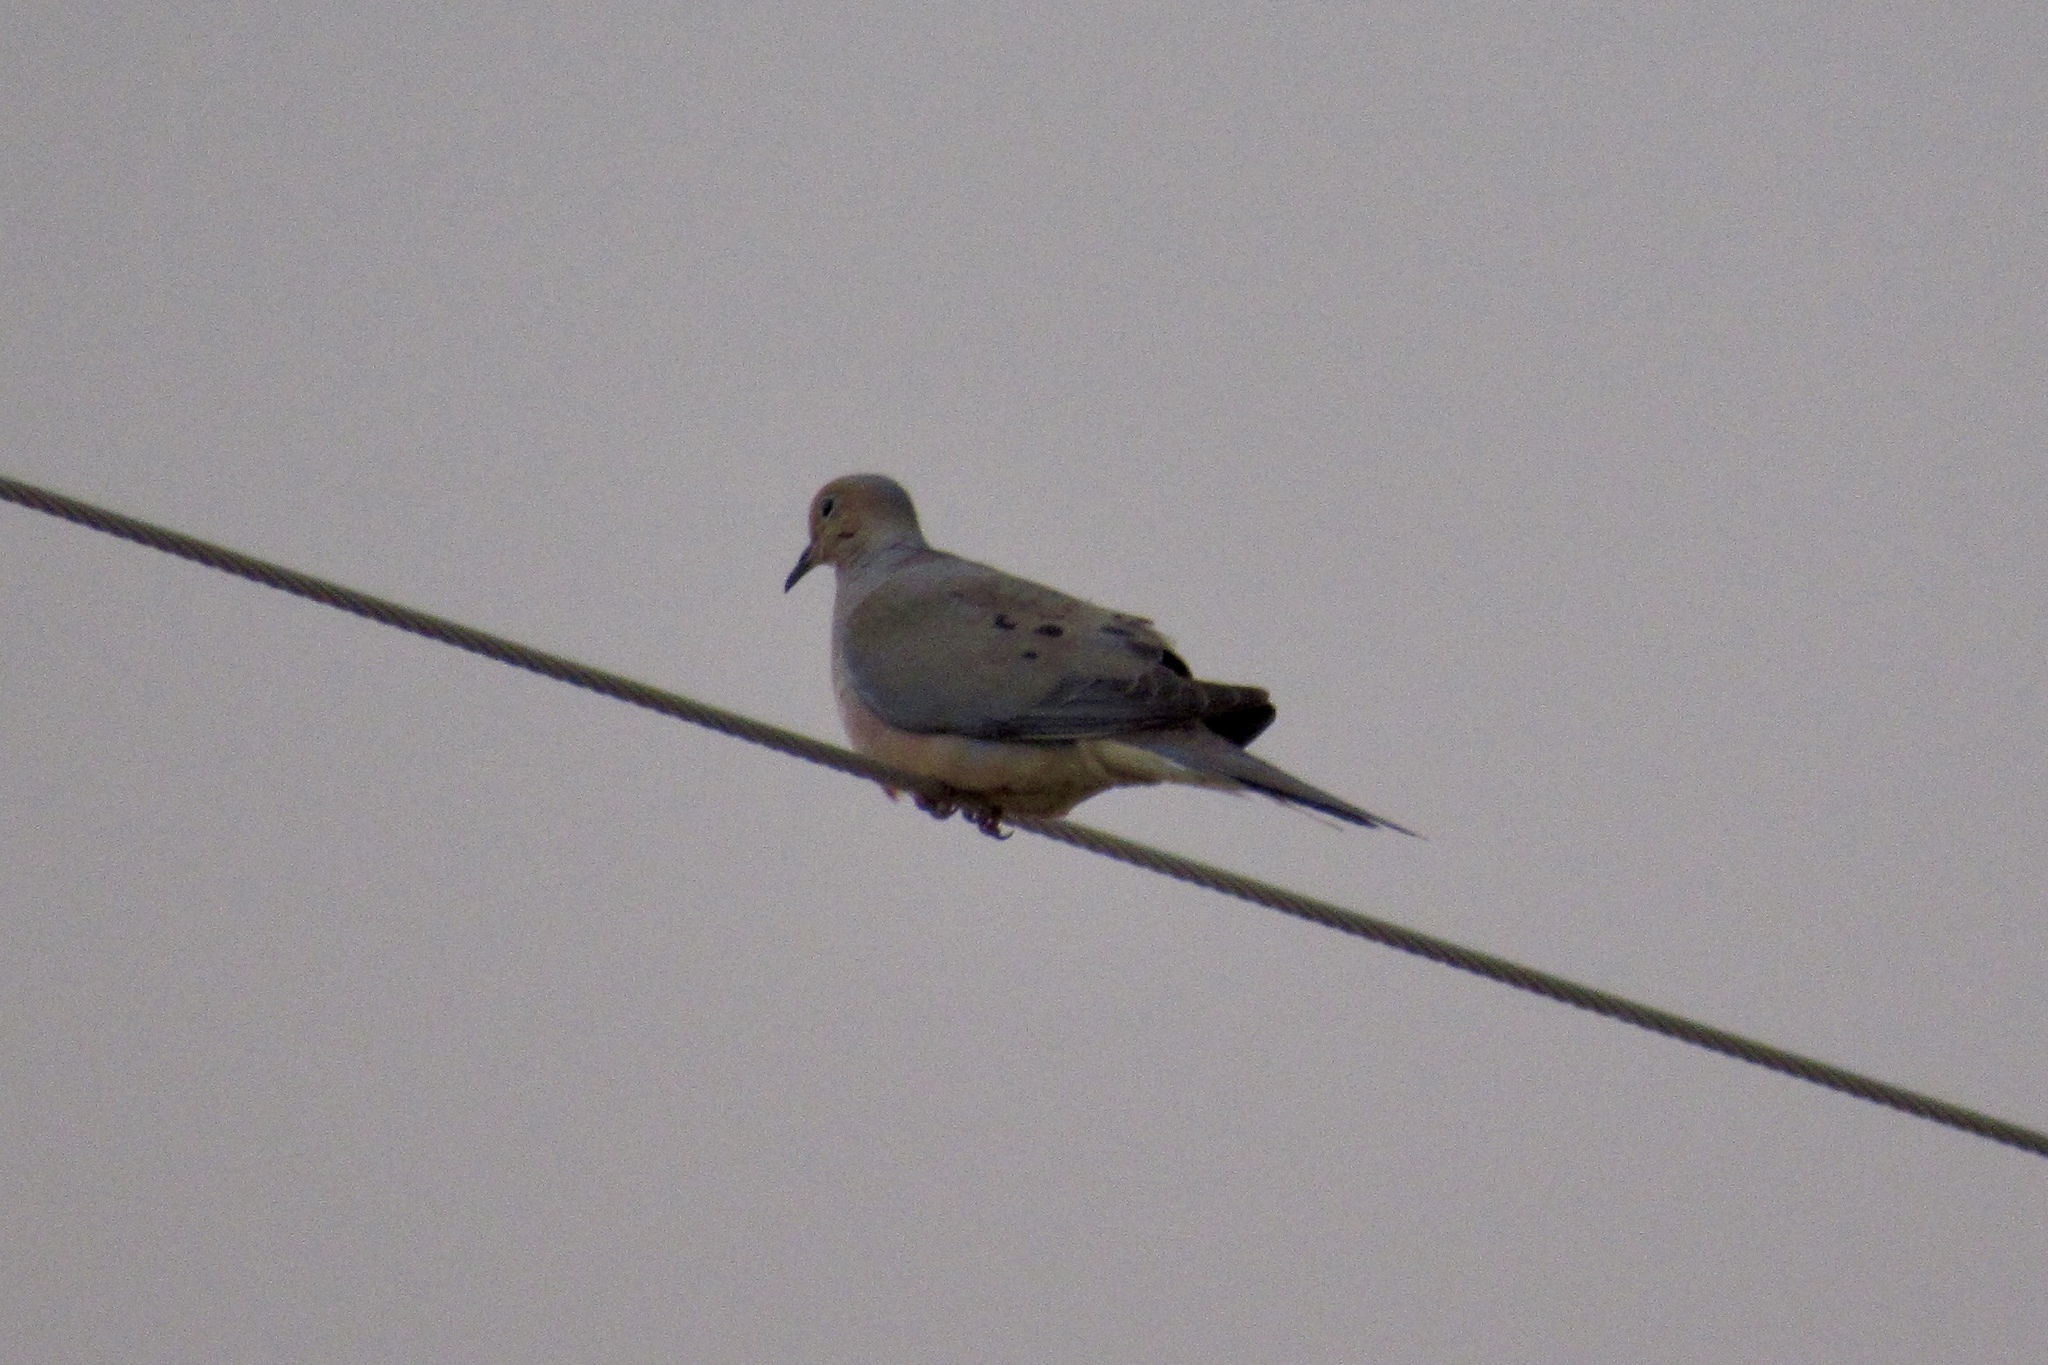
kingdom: Animalia
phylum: Chordata
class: Aves
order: Columbiformes
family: Columbidae
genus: Zenaida
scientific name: Zenaida macroura
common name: Mourning dove
